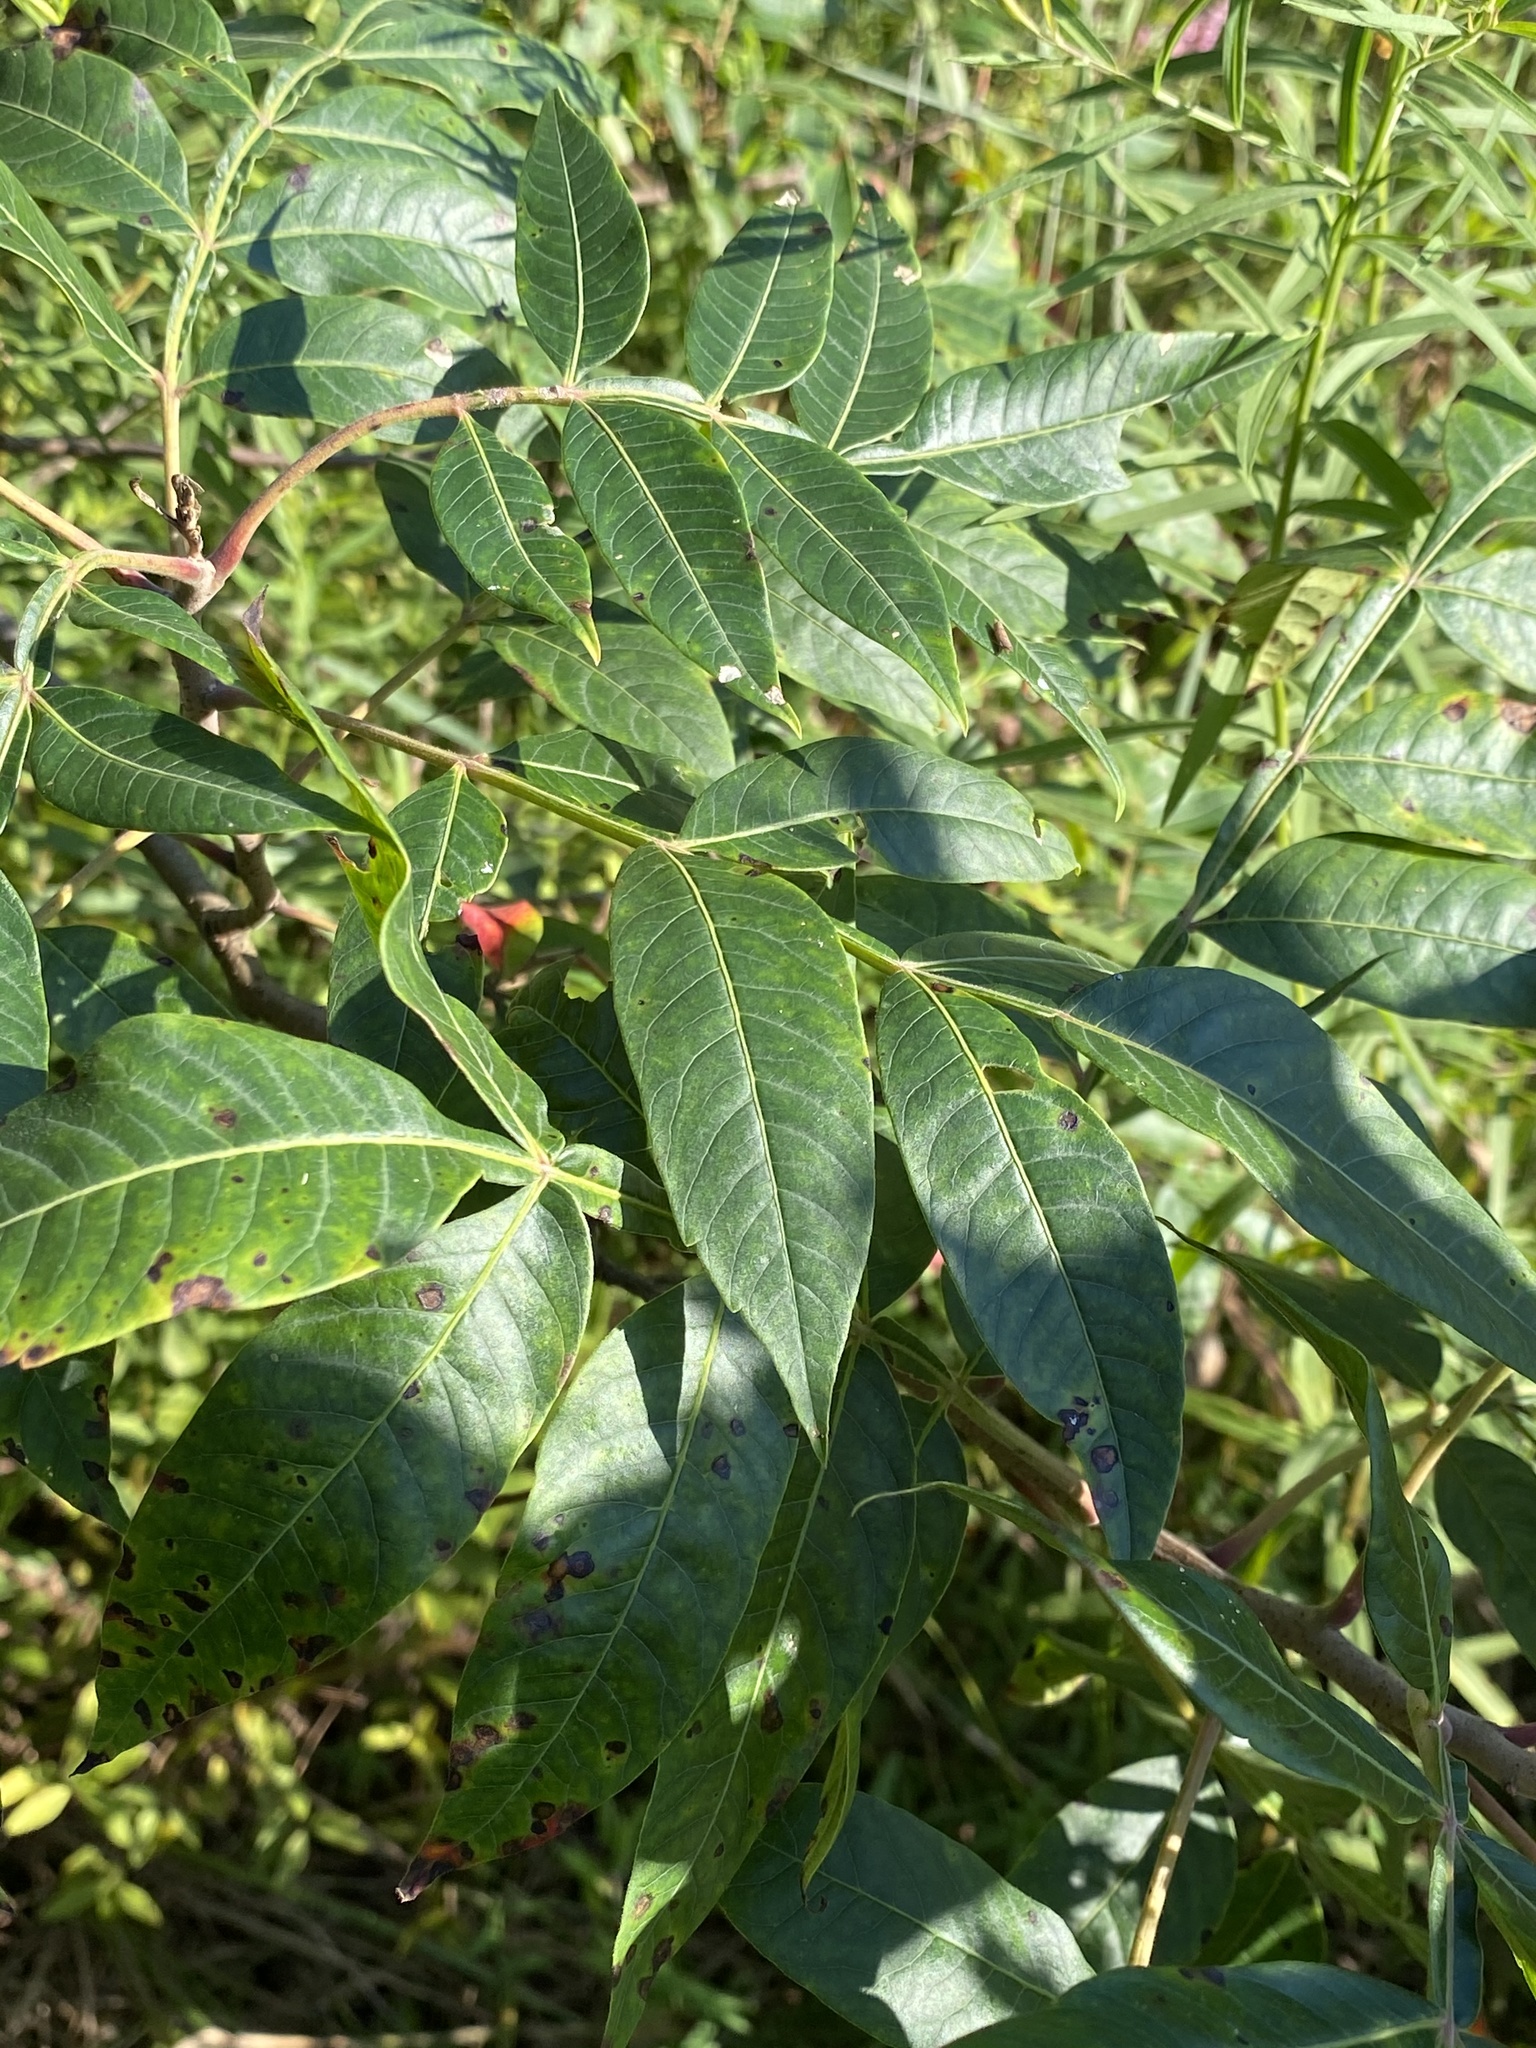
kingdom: Plantae
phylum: Tracheophyta
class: Magnoliopsida
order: Sapindales
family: Anacardiaceae
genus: Rhus
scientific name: Rhus copallina
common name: Shining sumac
